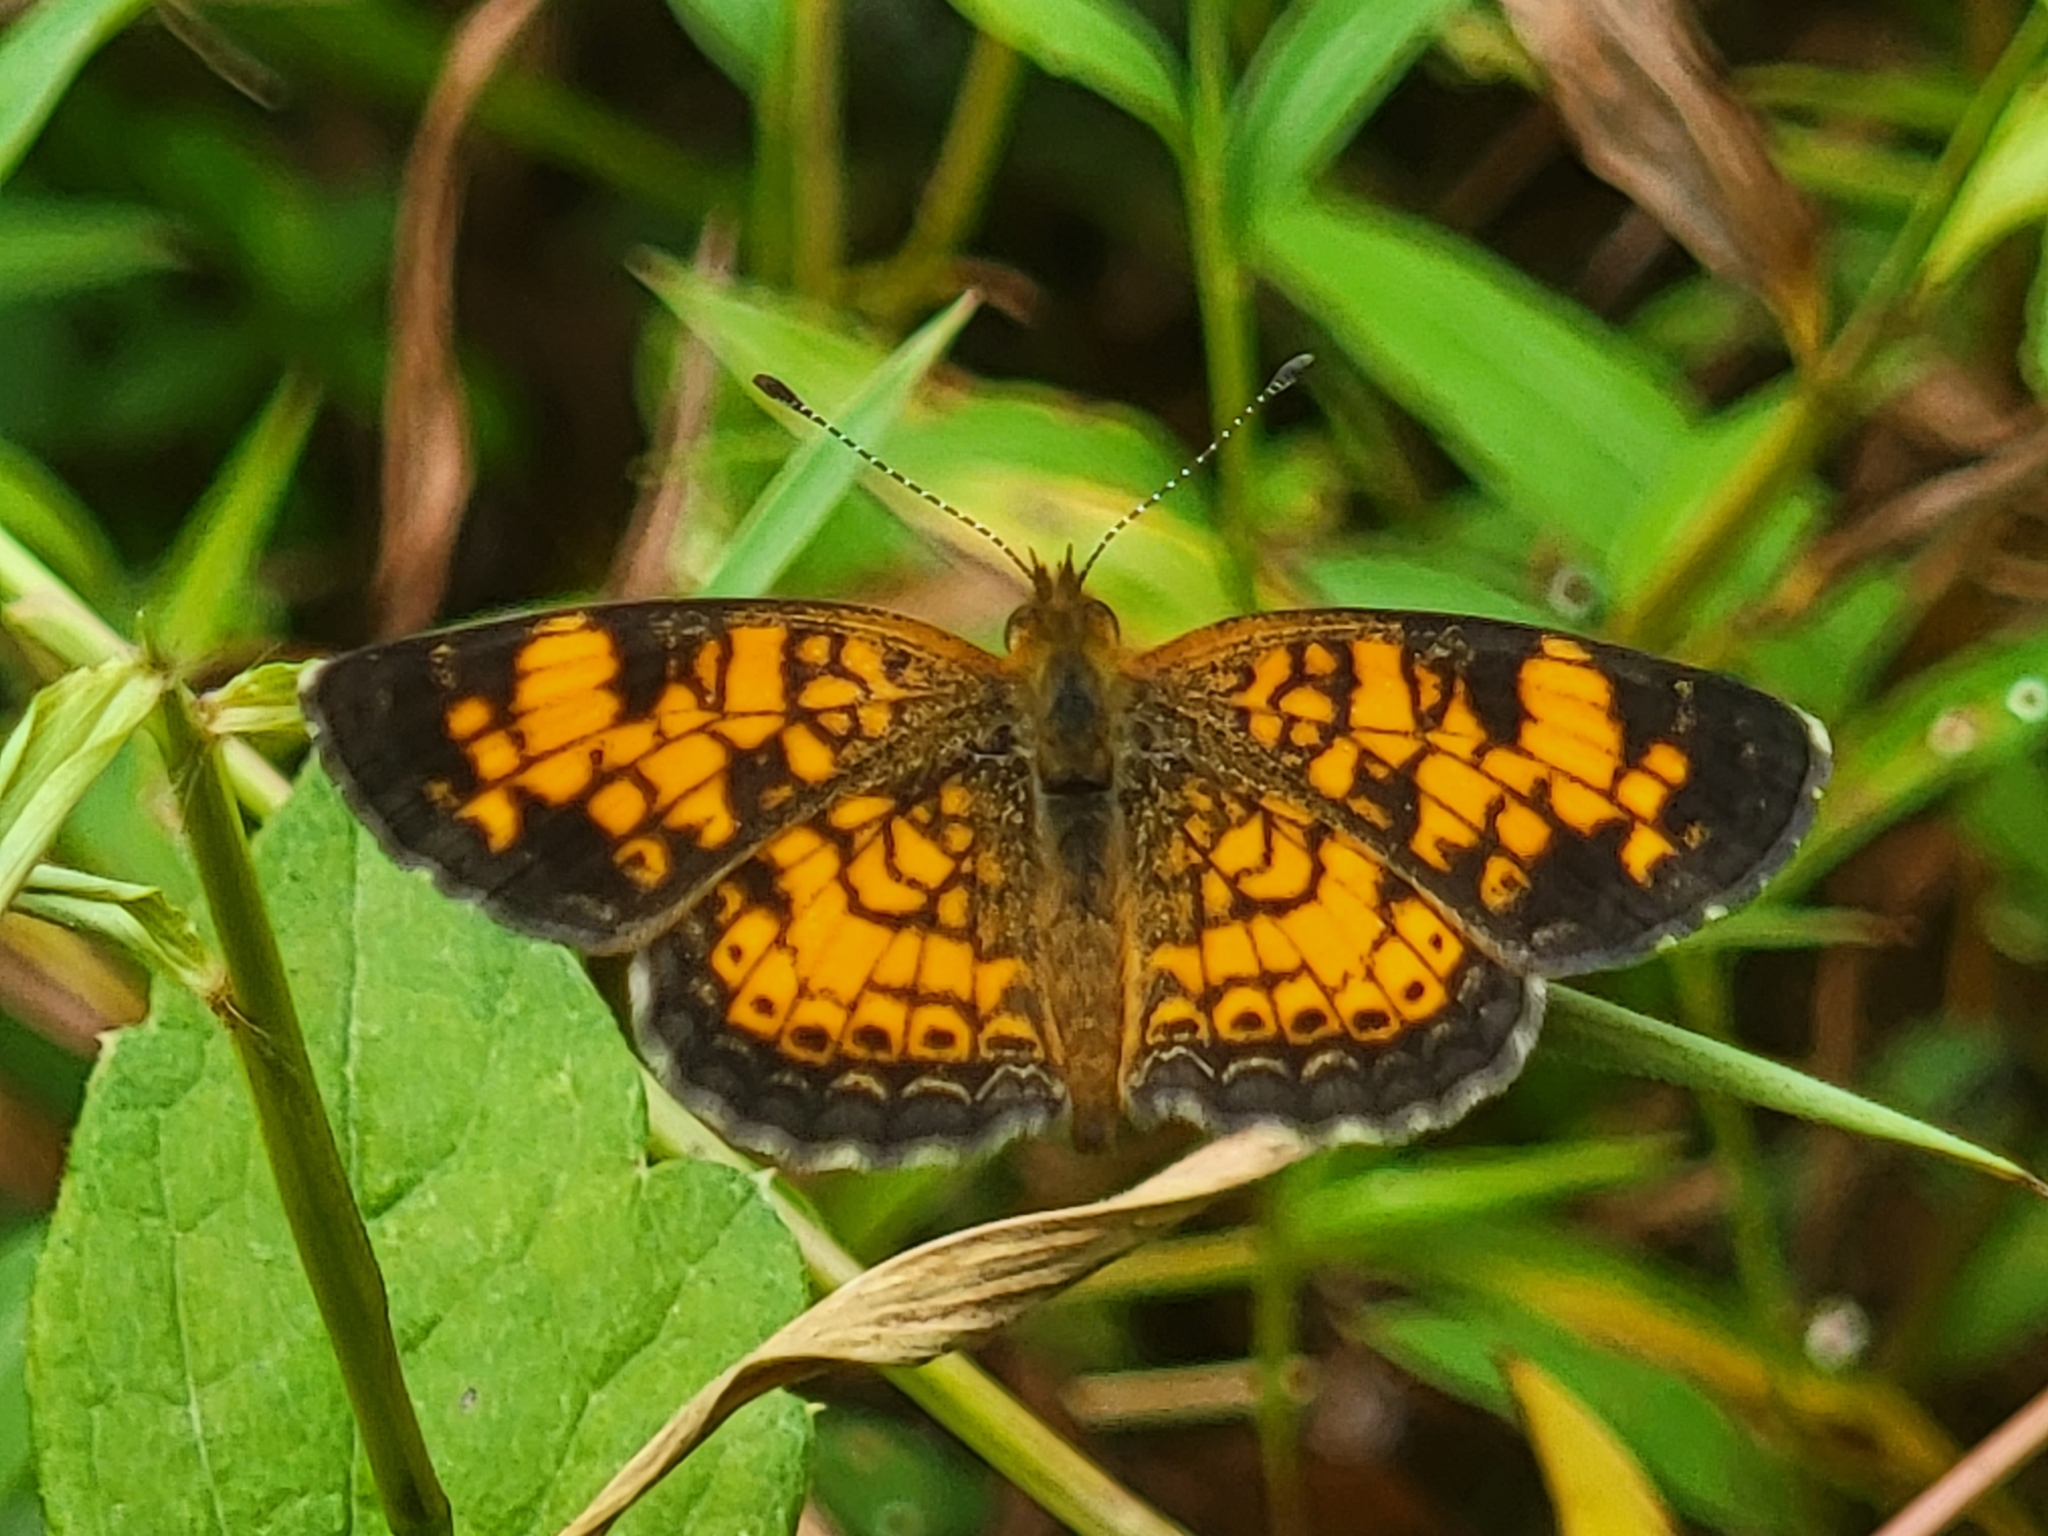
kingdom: Animalia
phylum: Arthropoda
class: Insecta
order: Lepidoptera
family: Nymphalidae
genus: Phyciodes
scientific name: Phyciodes tharos
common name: Pearl crescent
